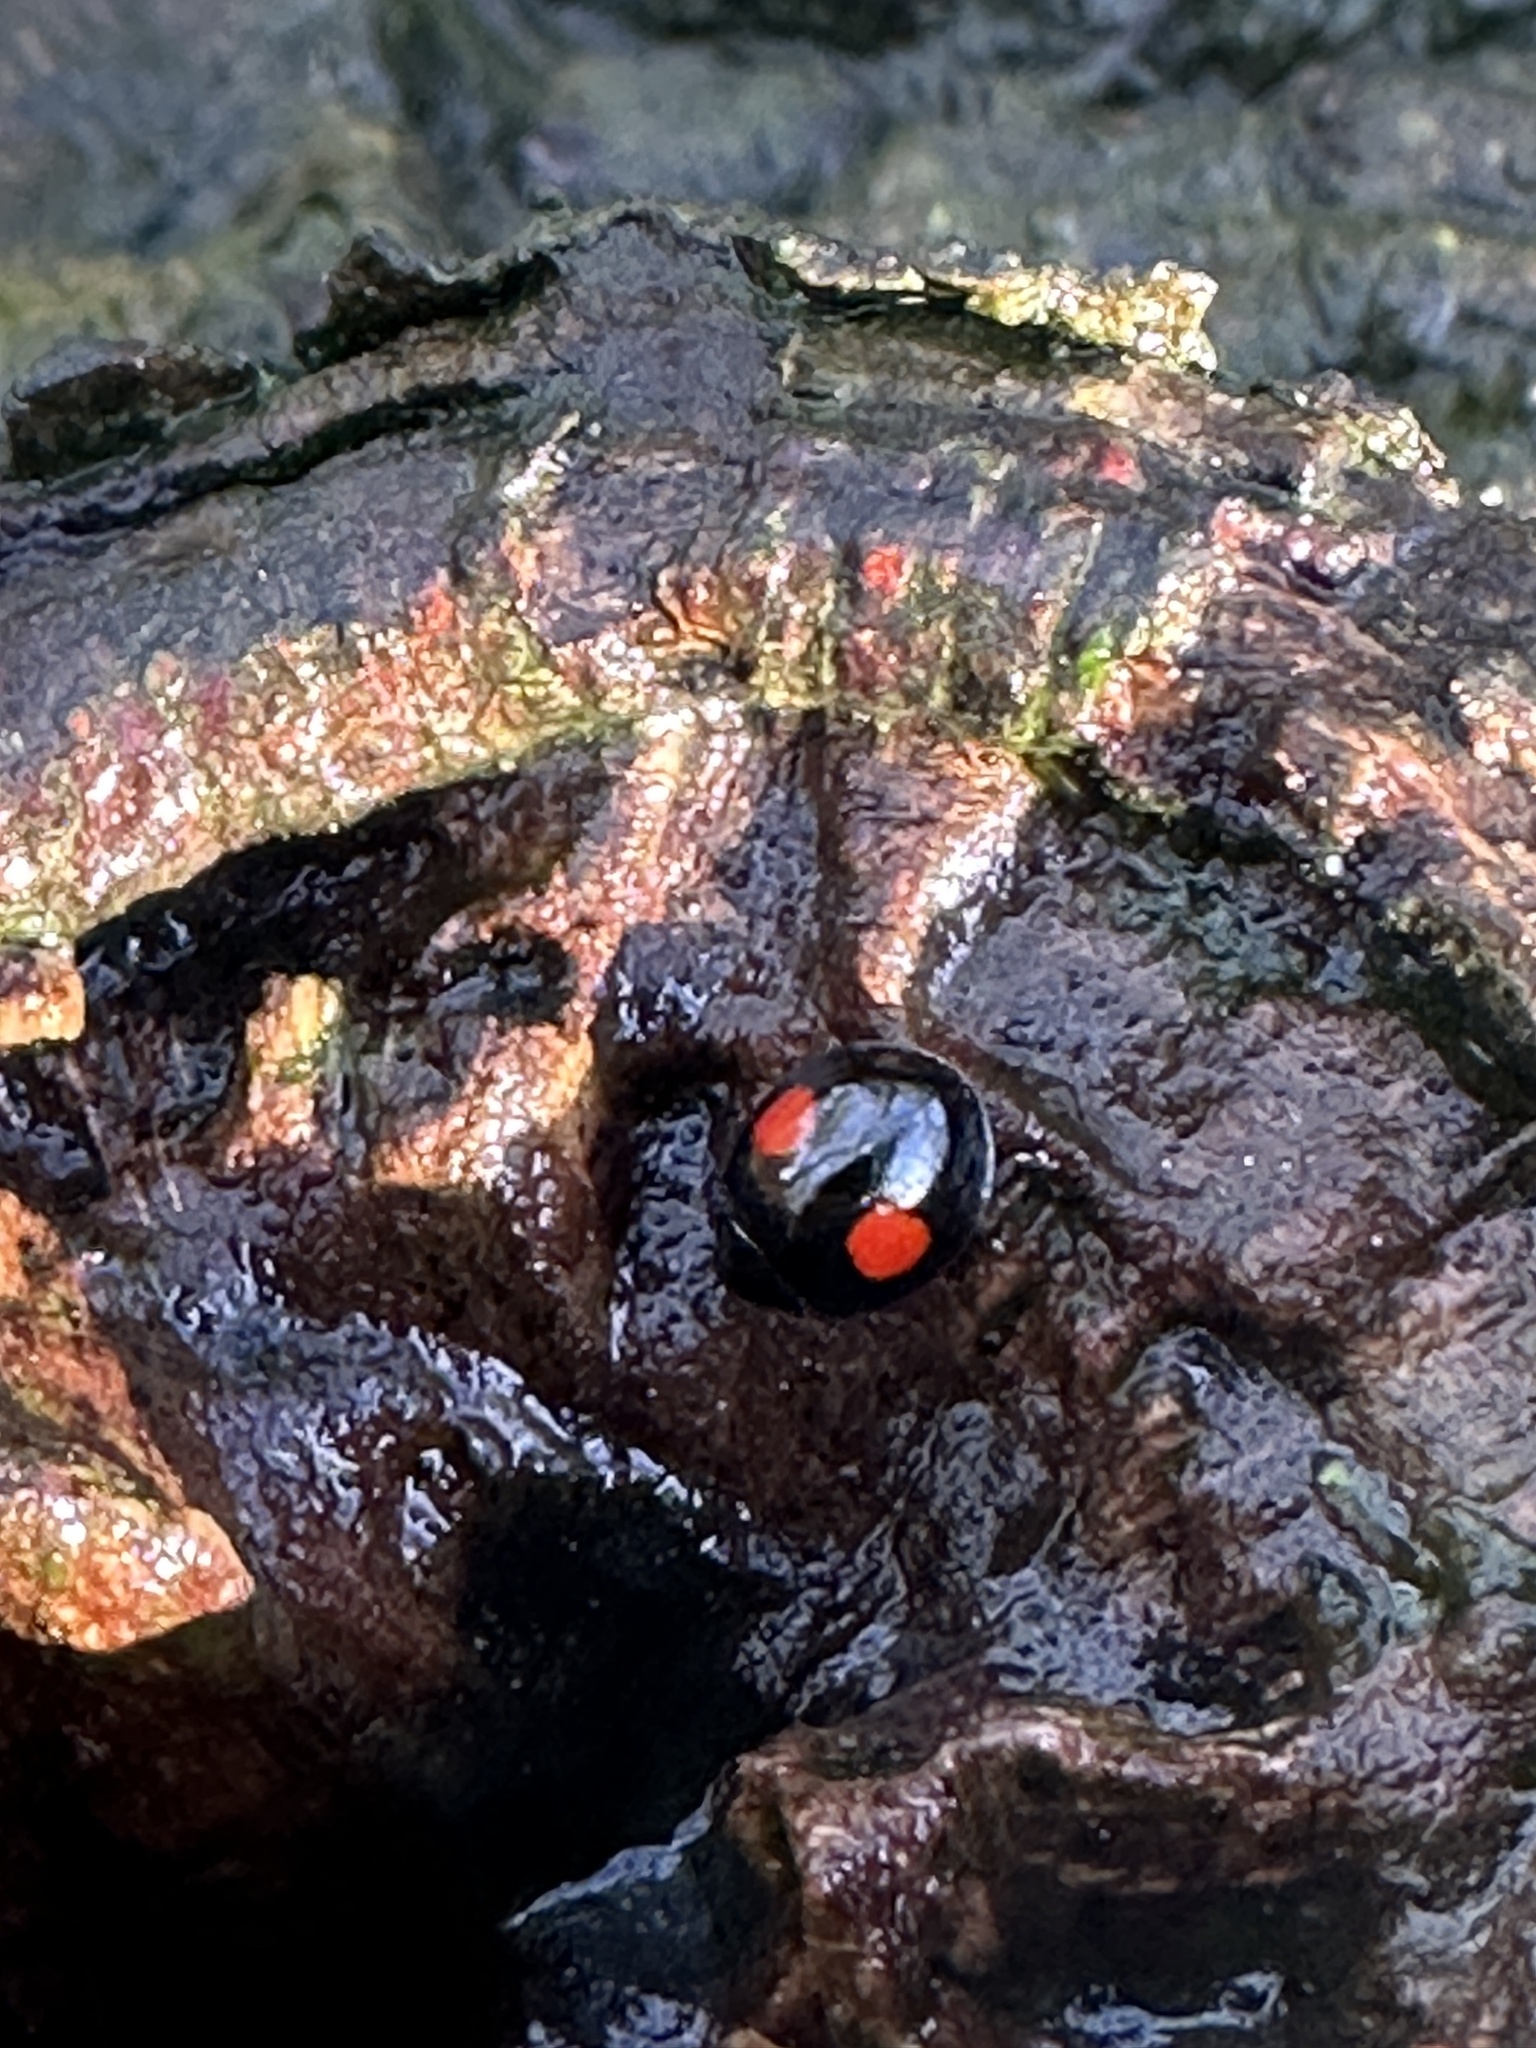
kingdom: Animalia
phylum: Arthropoda
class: Insecta
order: Coleoptera
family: Coccinellidae
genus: Chilocorus
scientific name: Chilocorus renipustulatus
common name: Kidney-spot ladybird
